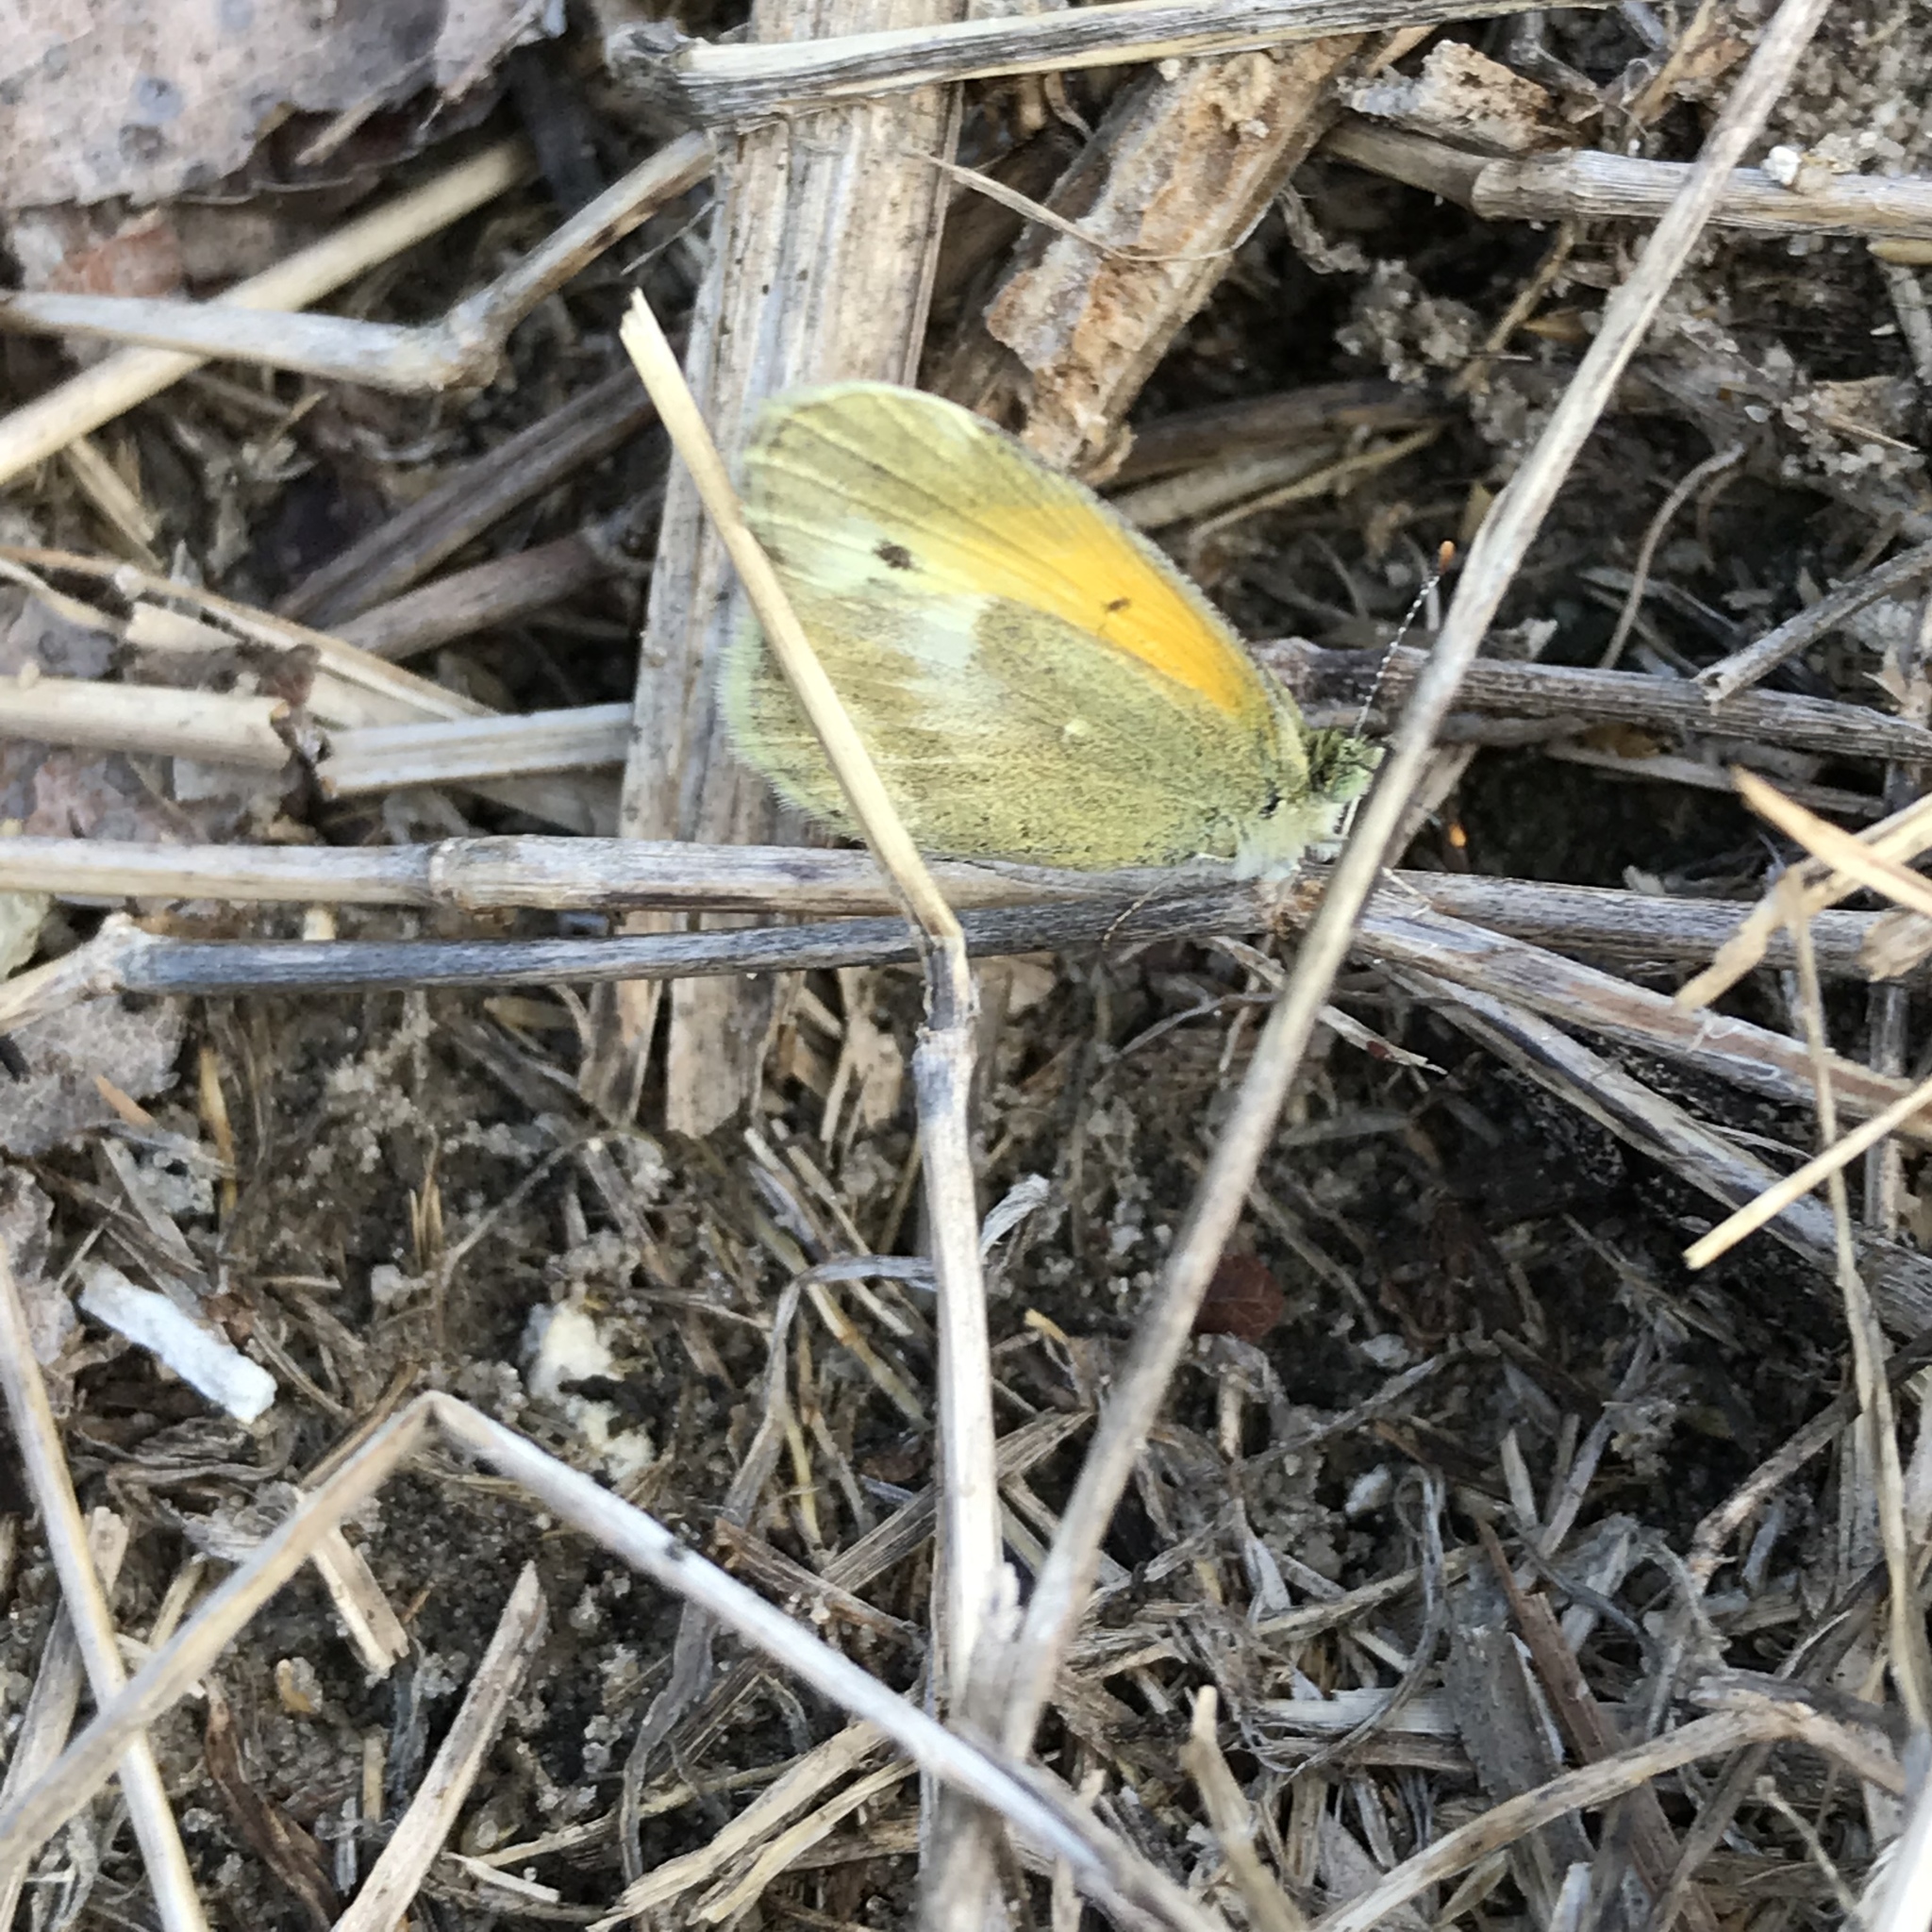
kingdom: Animalia
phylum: Arthropoda
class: Insecta
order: Lepidoptera
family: Pieridae
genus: Nathalis
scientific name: Nathalis iole
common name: Dainty sulphur
